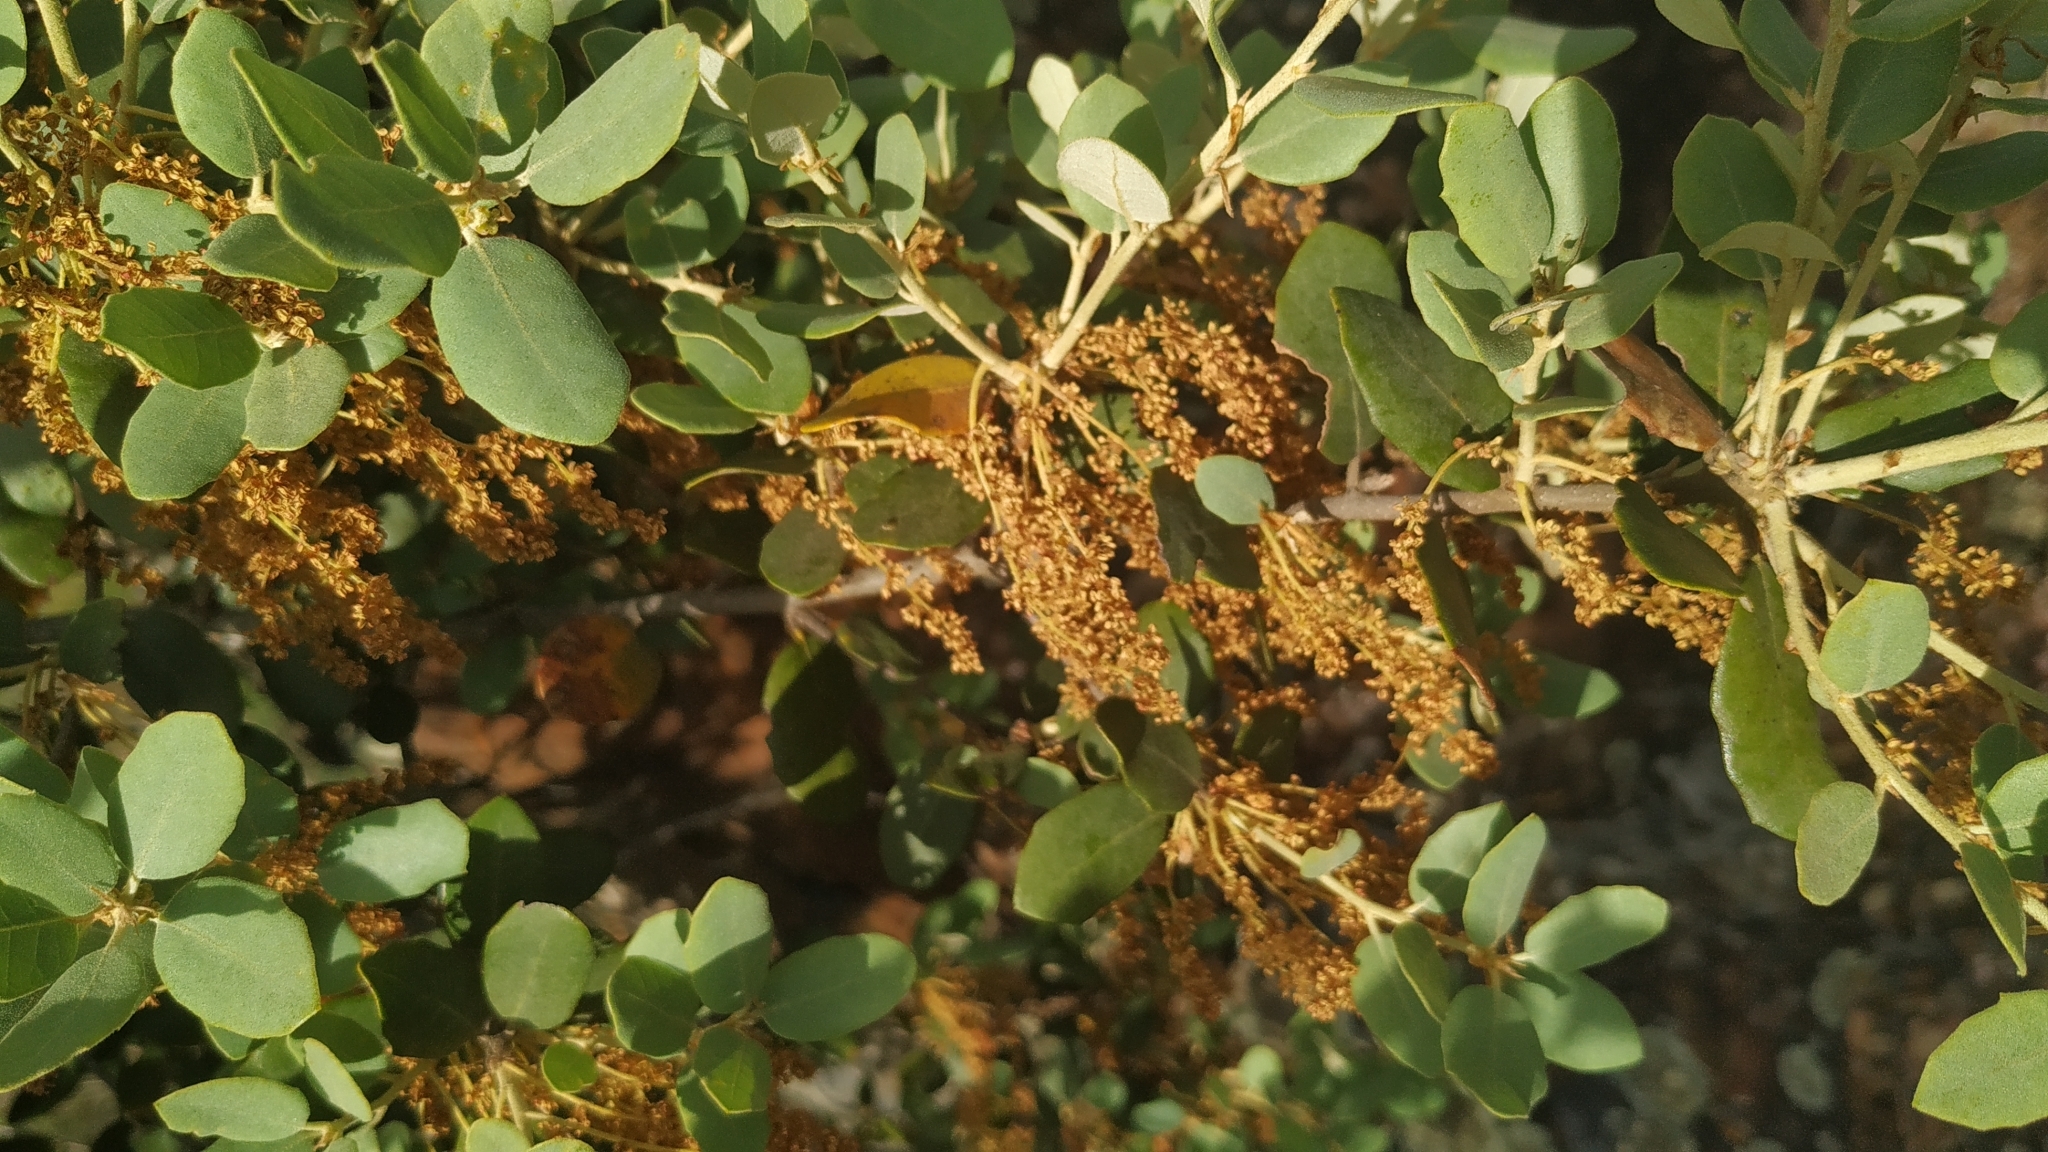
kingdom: Plantae
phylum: Tracheophyta
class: Magnoliopsida
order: Fagales
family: Fagaceae
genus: Quercus
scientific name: Quercus rotundifolia
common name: Holm oak
